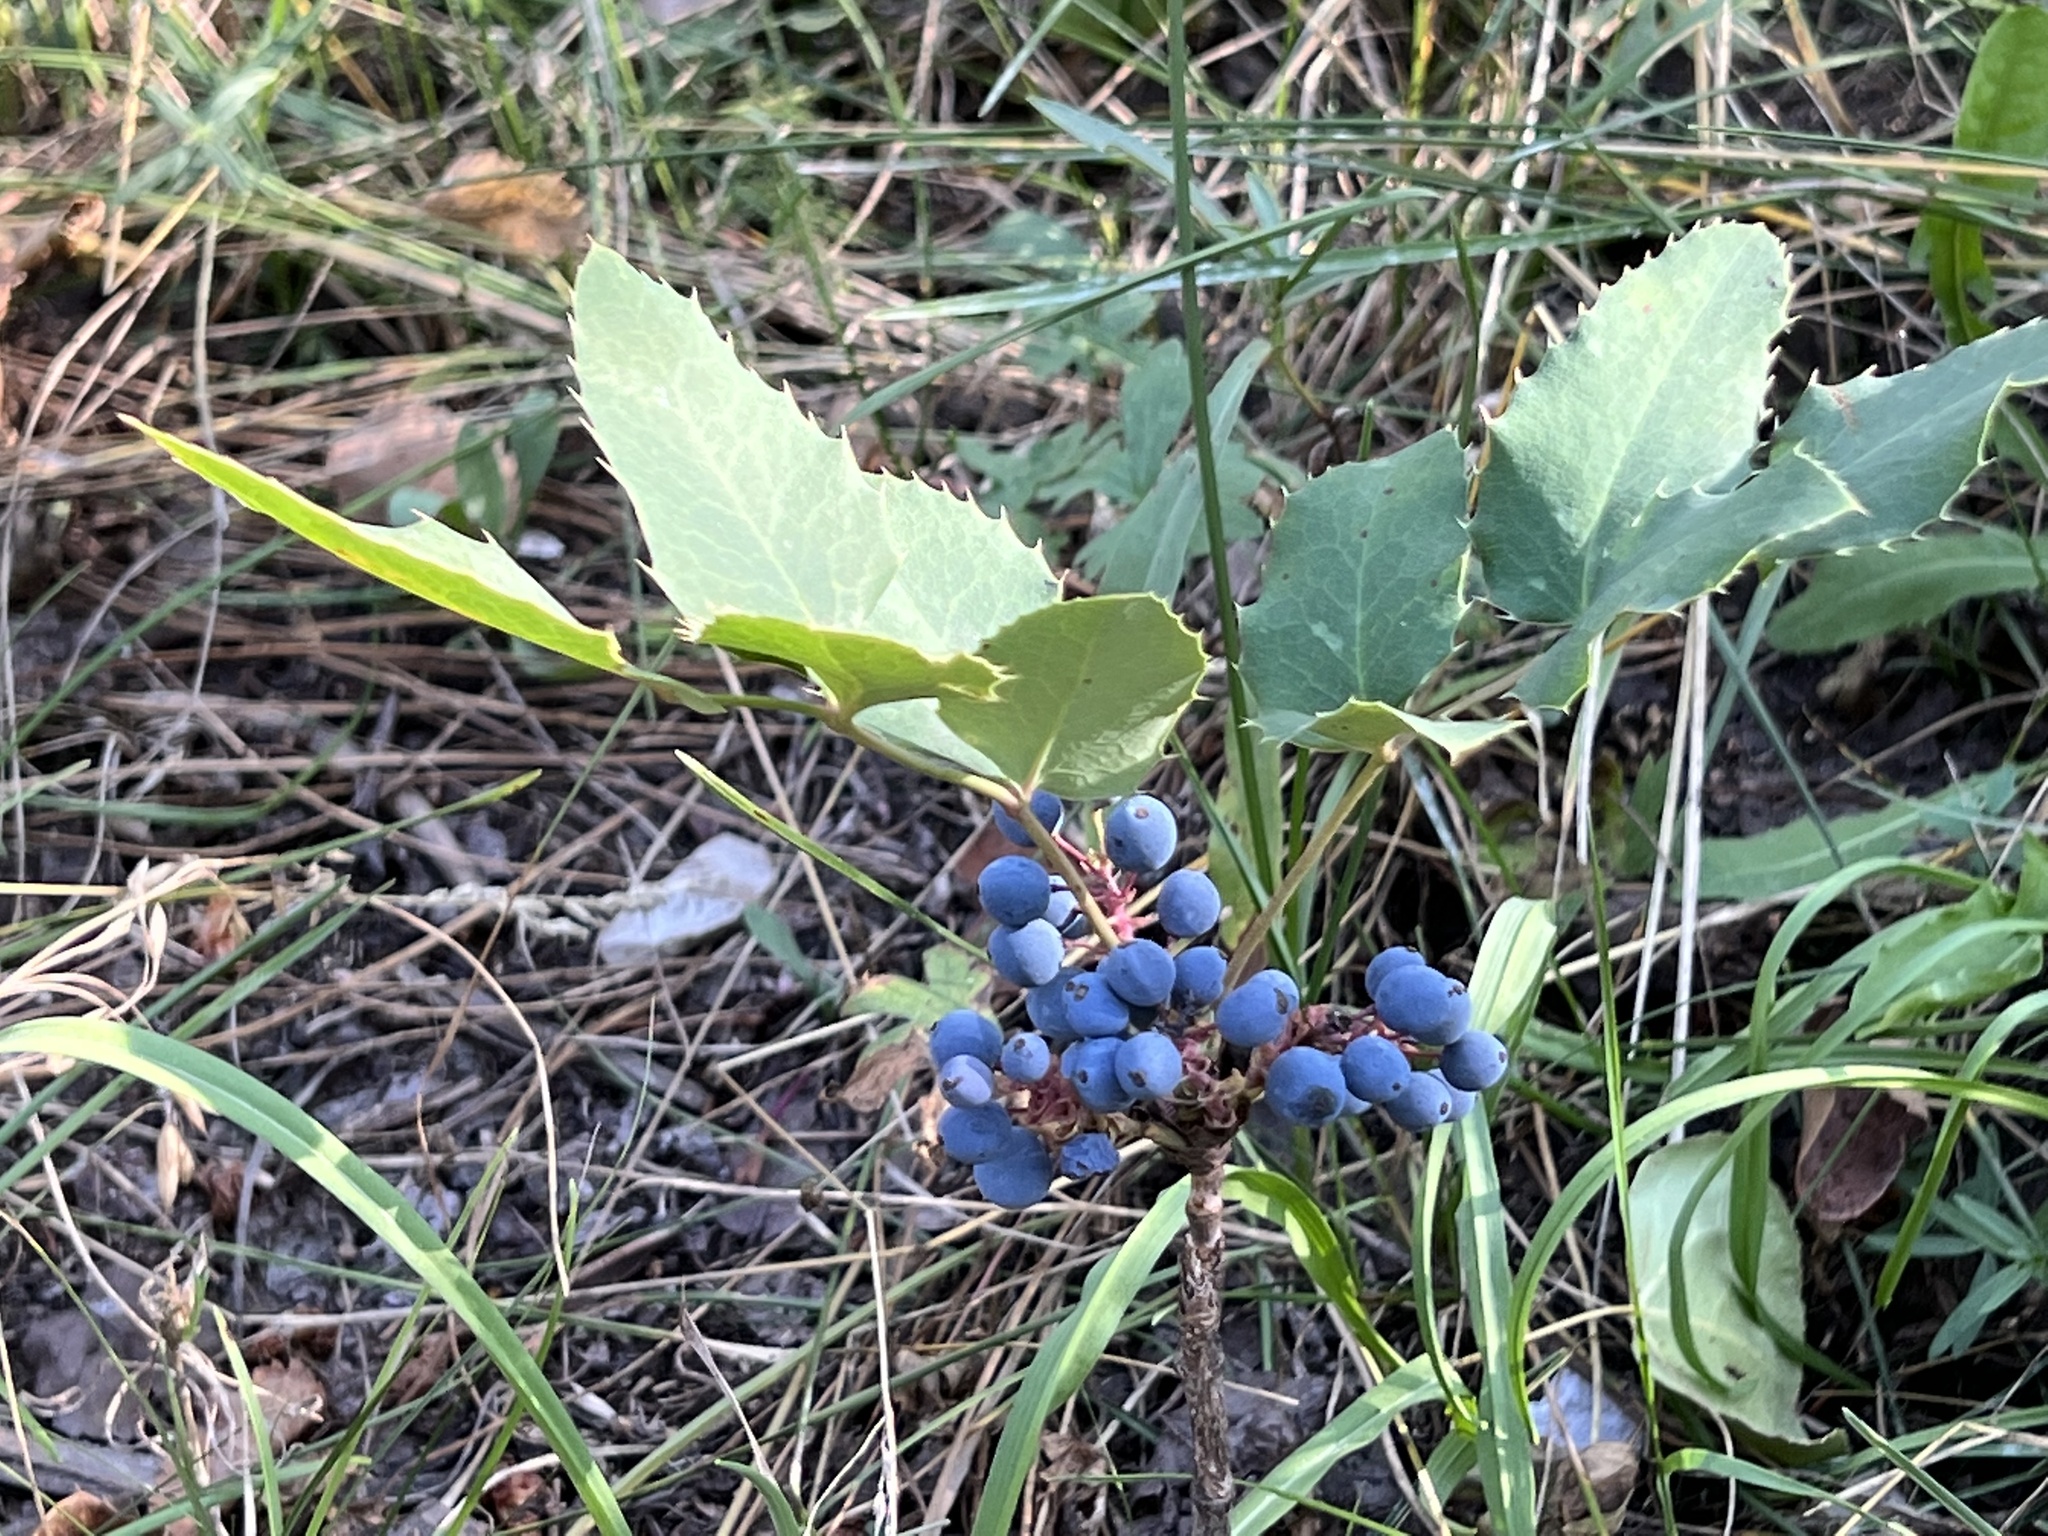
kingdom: Plantae
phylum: Tracheophyta
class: Magnoliopsida
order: Ranunculales
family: Berberidaceae
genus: Mahonia
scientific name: Mahonia repens
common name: Creeping oregon-grape
